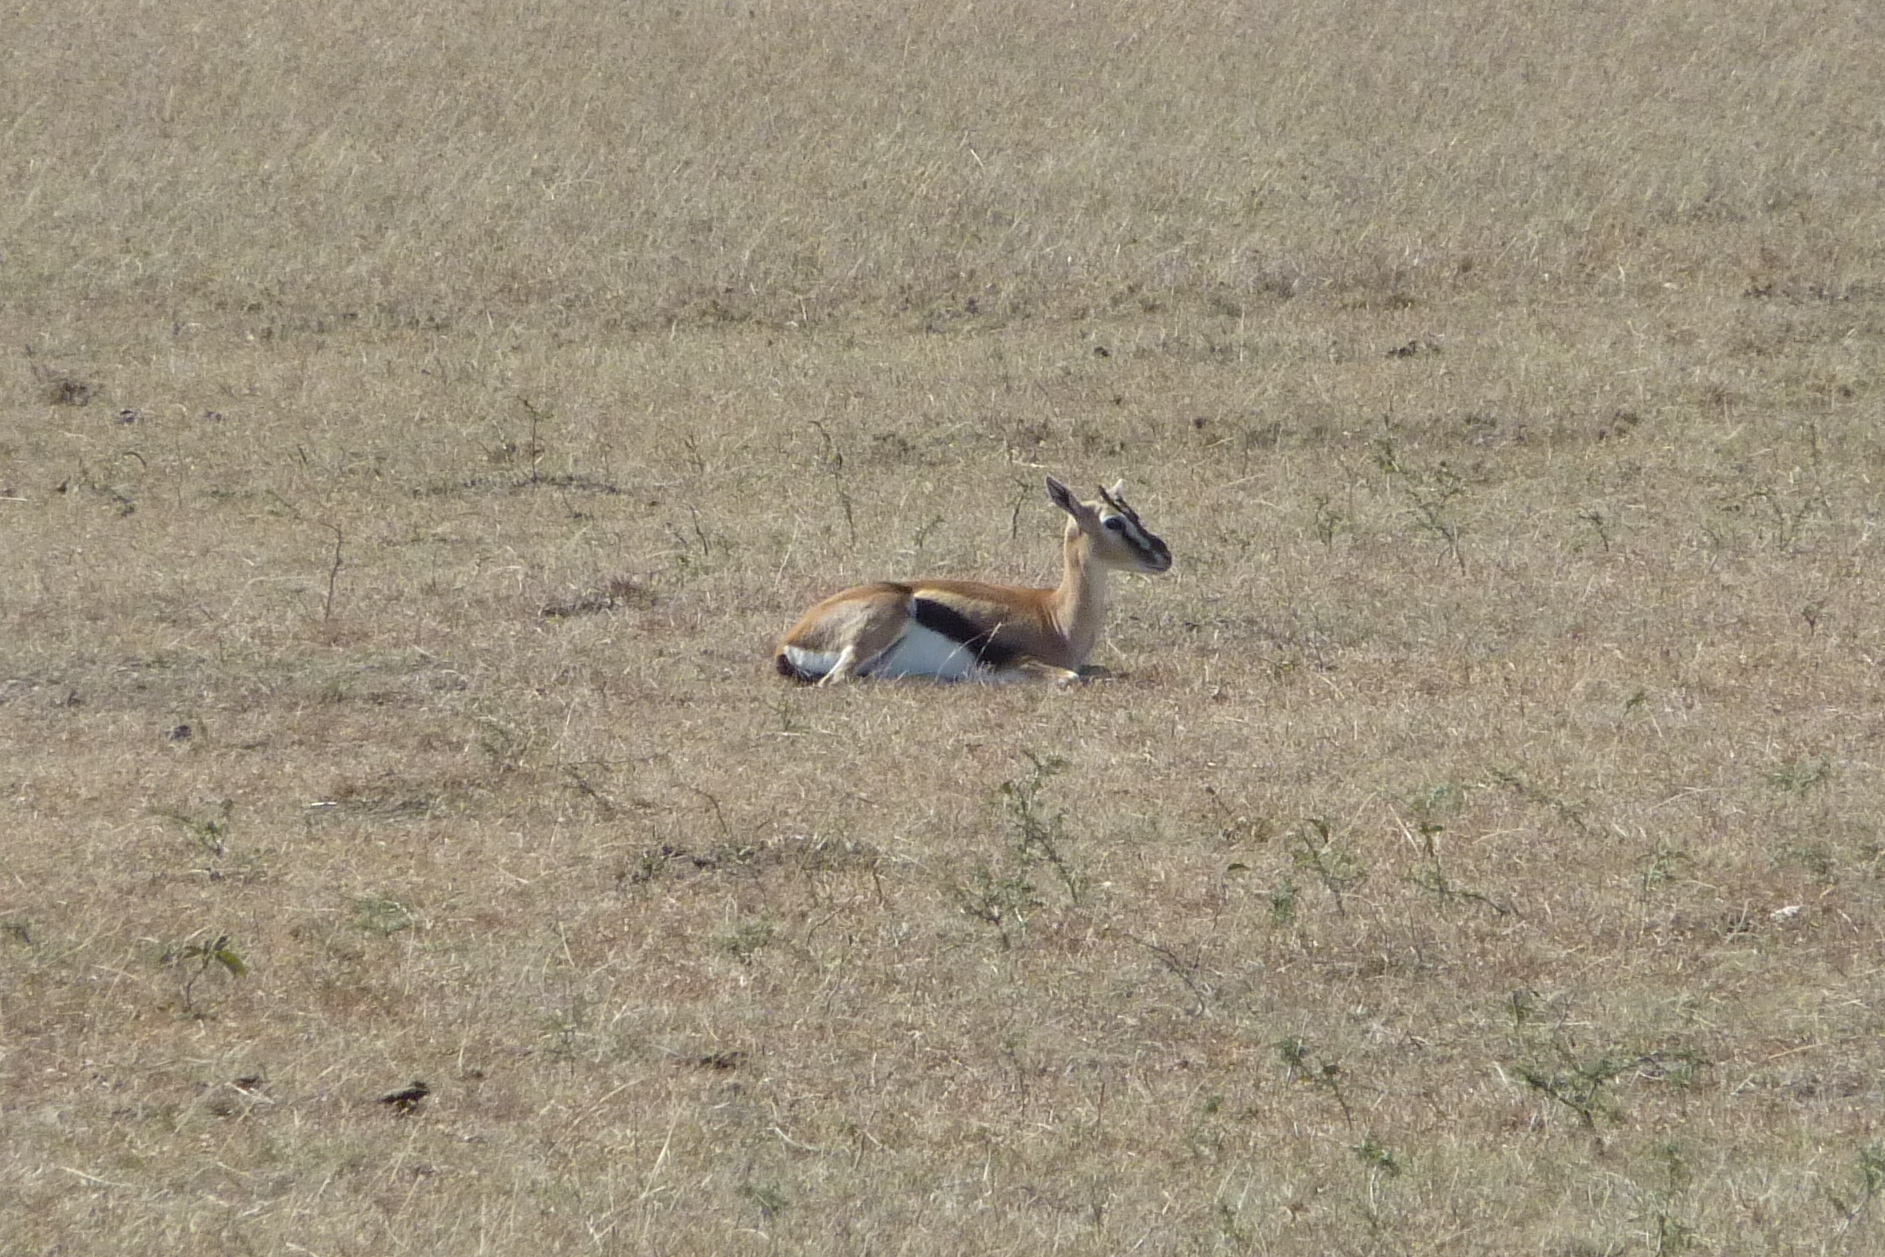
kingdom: Animalia
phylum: Chordata
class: Mammalia
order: Artiodactyla
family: Bovidae
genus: Eudorcas
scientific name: Eudorcas thomsonii
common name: Thomson's gazelle
